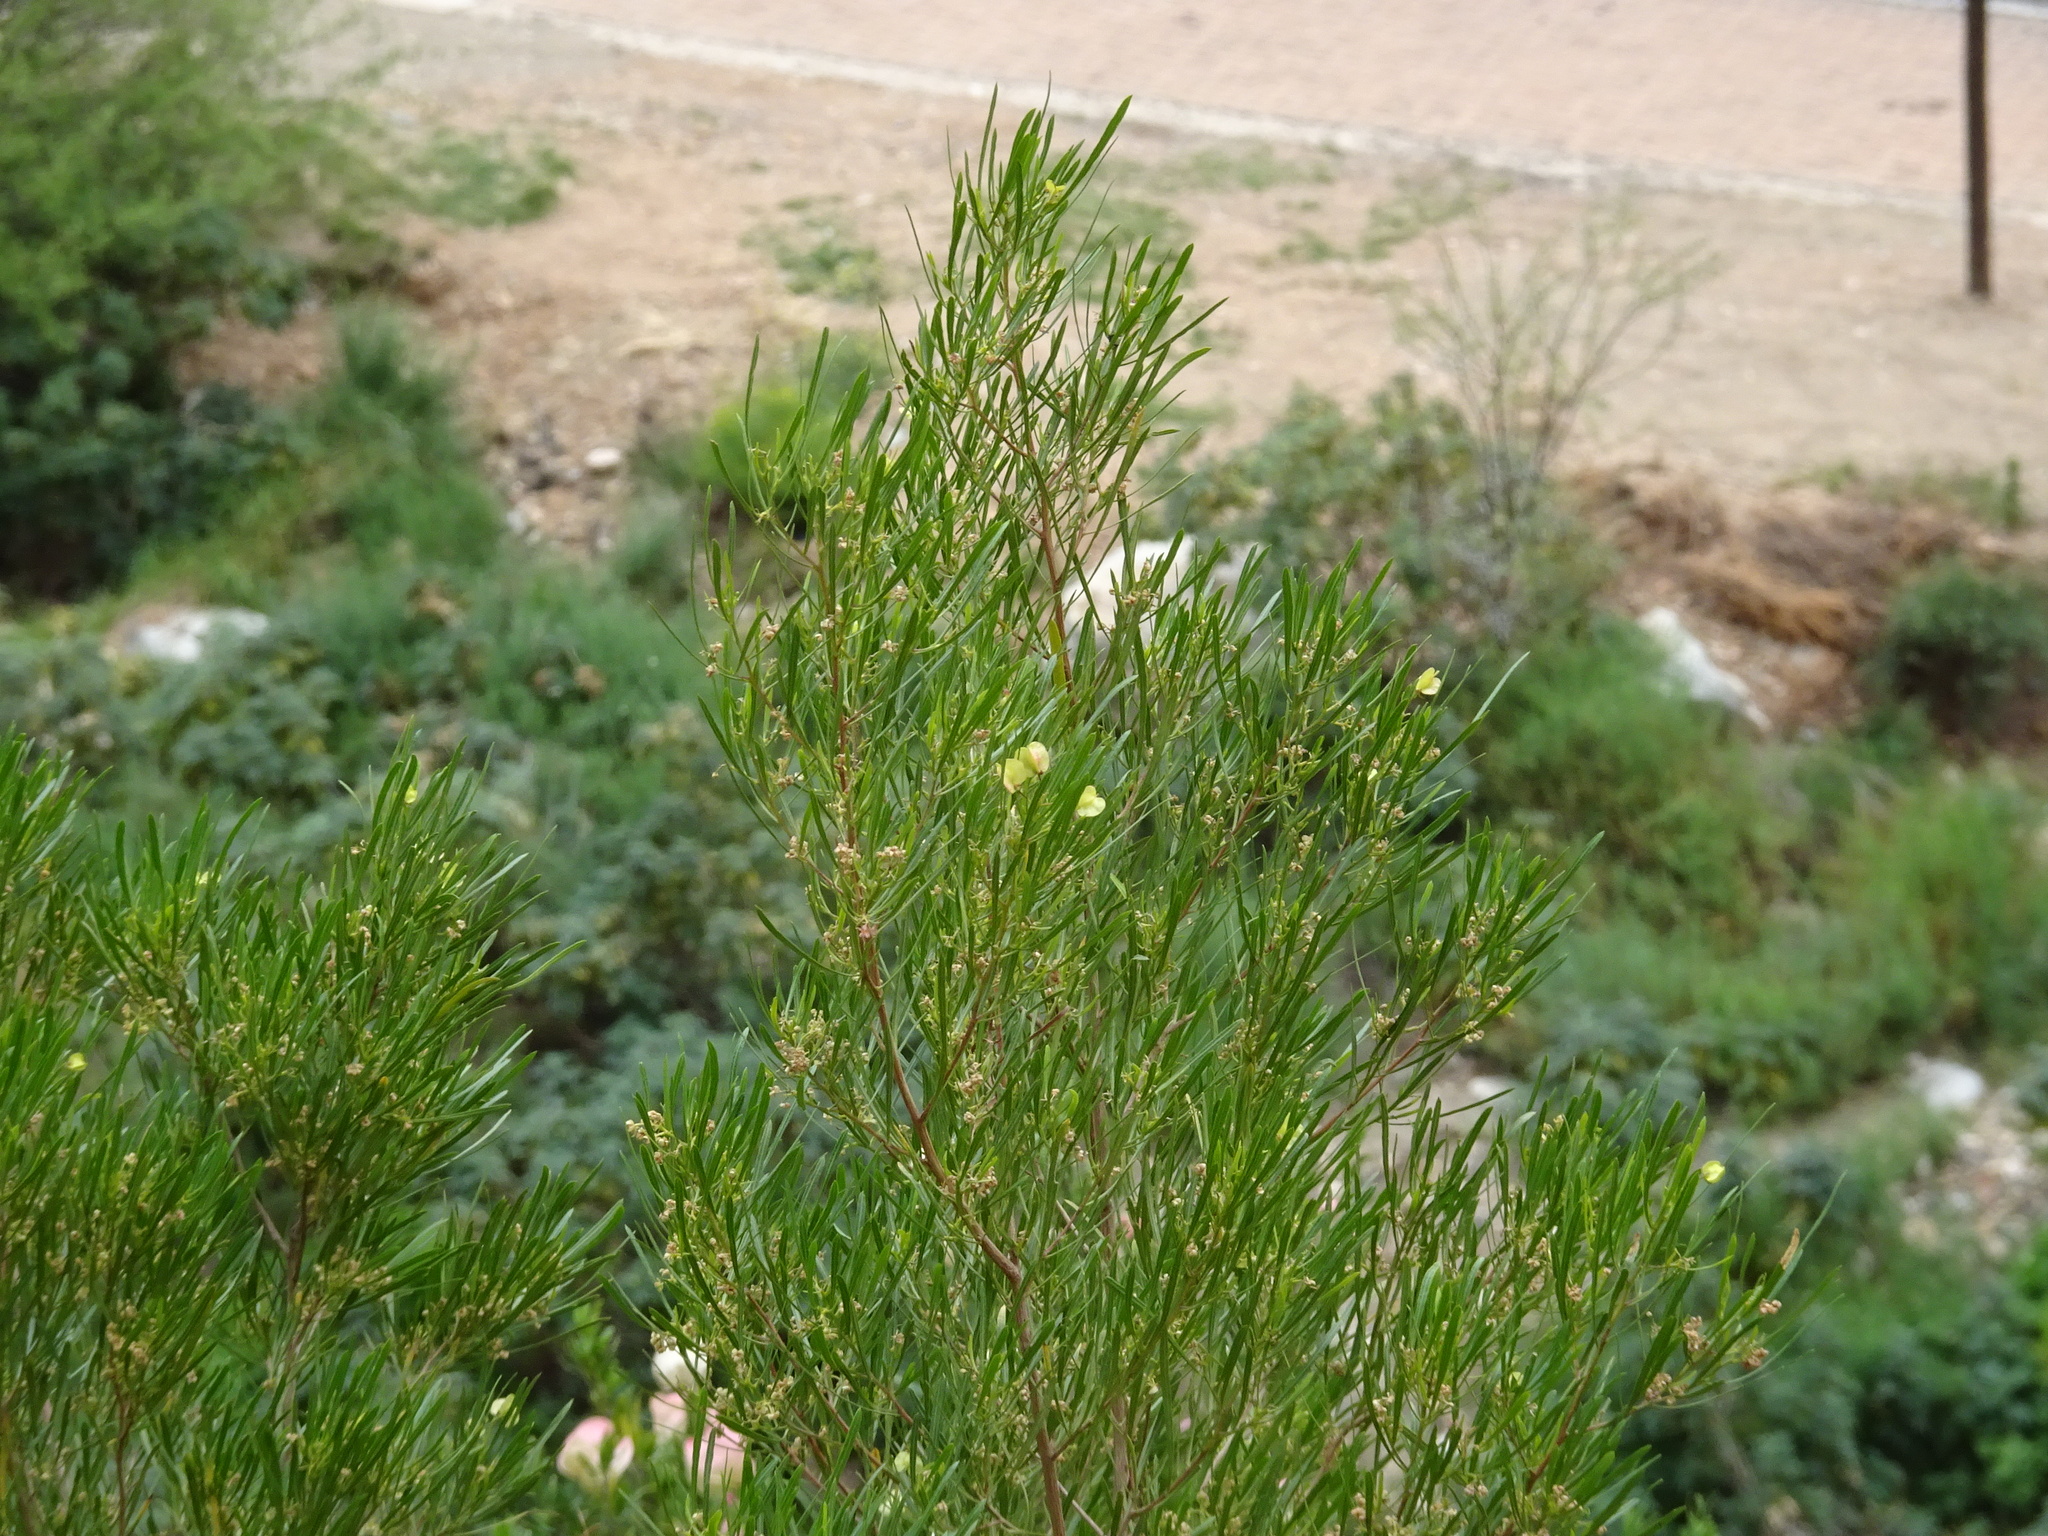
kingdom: Plantae
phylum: Tracheophyta
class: Magnoliopsida
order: Sapindales
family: Sapindaceae
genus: Dodonaea
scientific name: Dodonaea viscosa
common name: Hopbush
